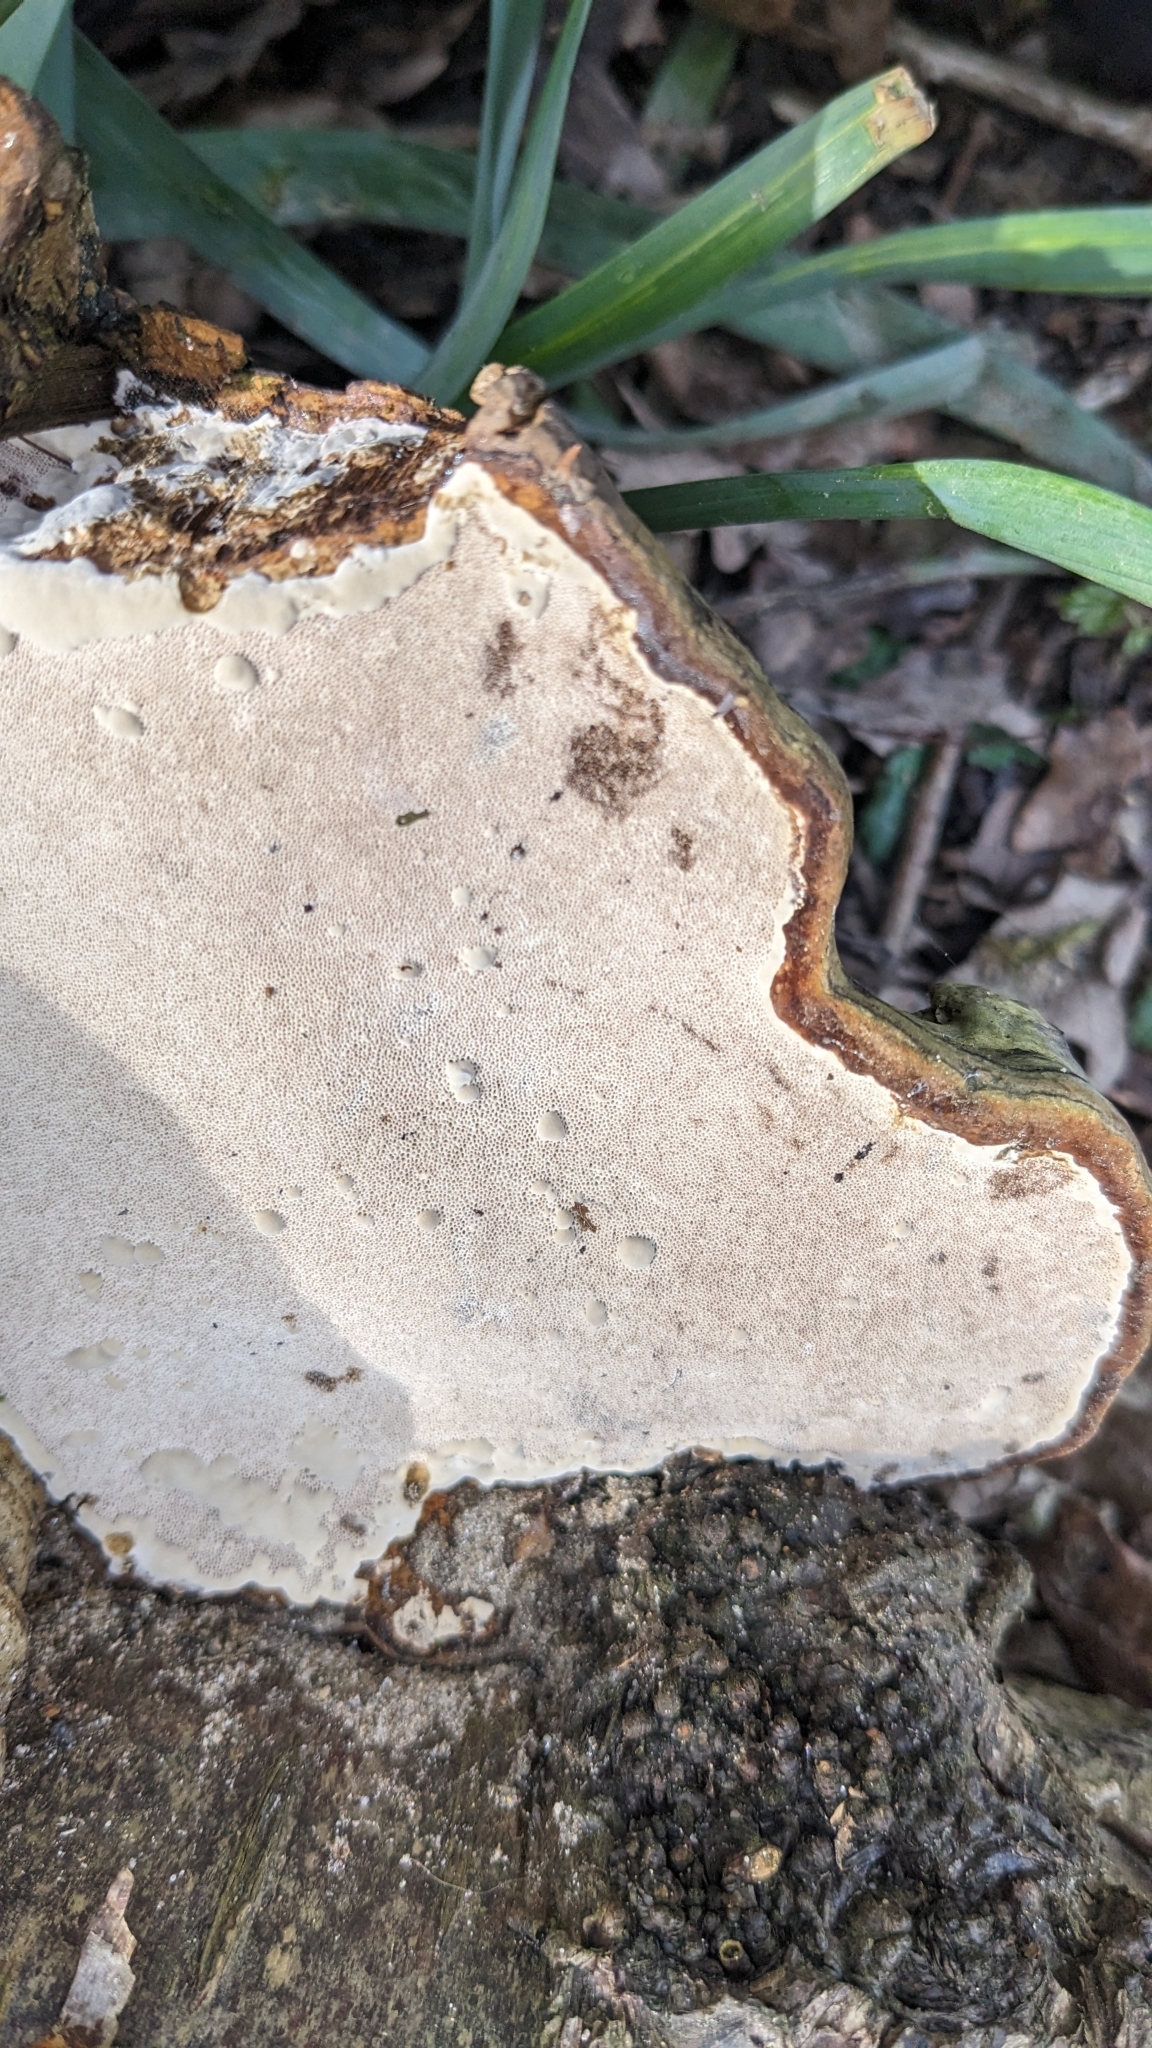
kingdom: Fungi
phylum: Basidiomycota
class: Agaricomycetes
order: Polyporales
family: Polyporaceae
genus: Fomes
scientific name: Fomes fomentarius
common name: Hoof fungus
